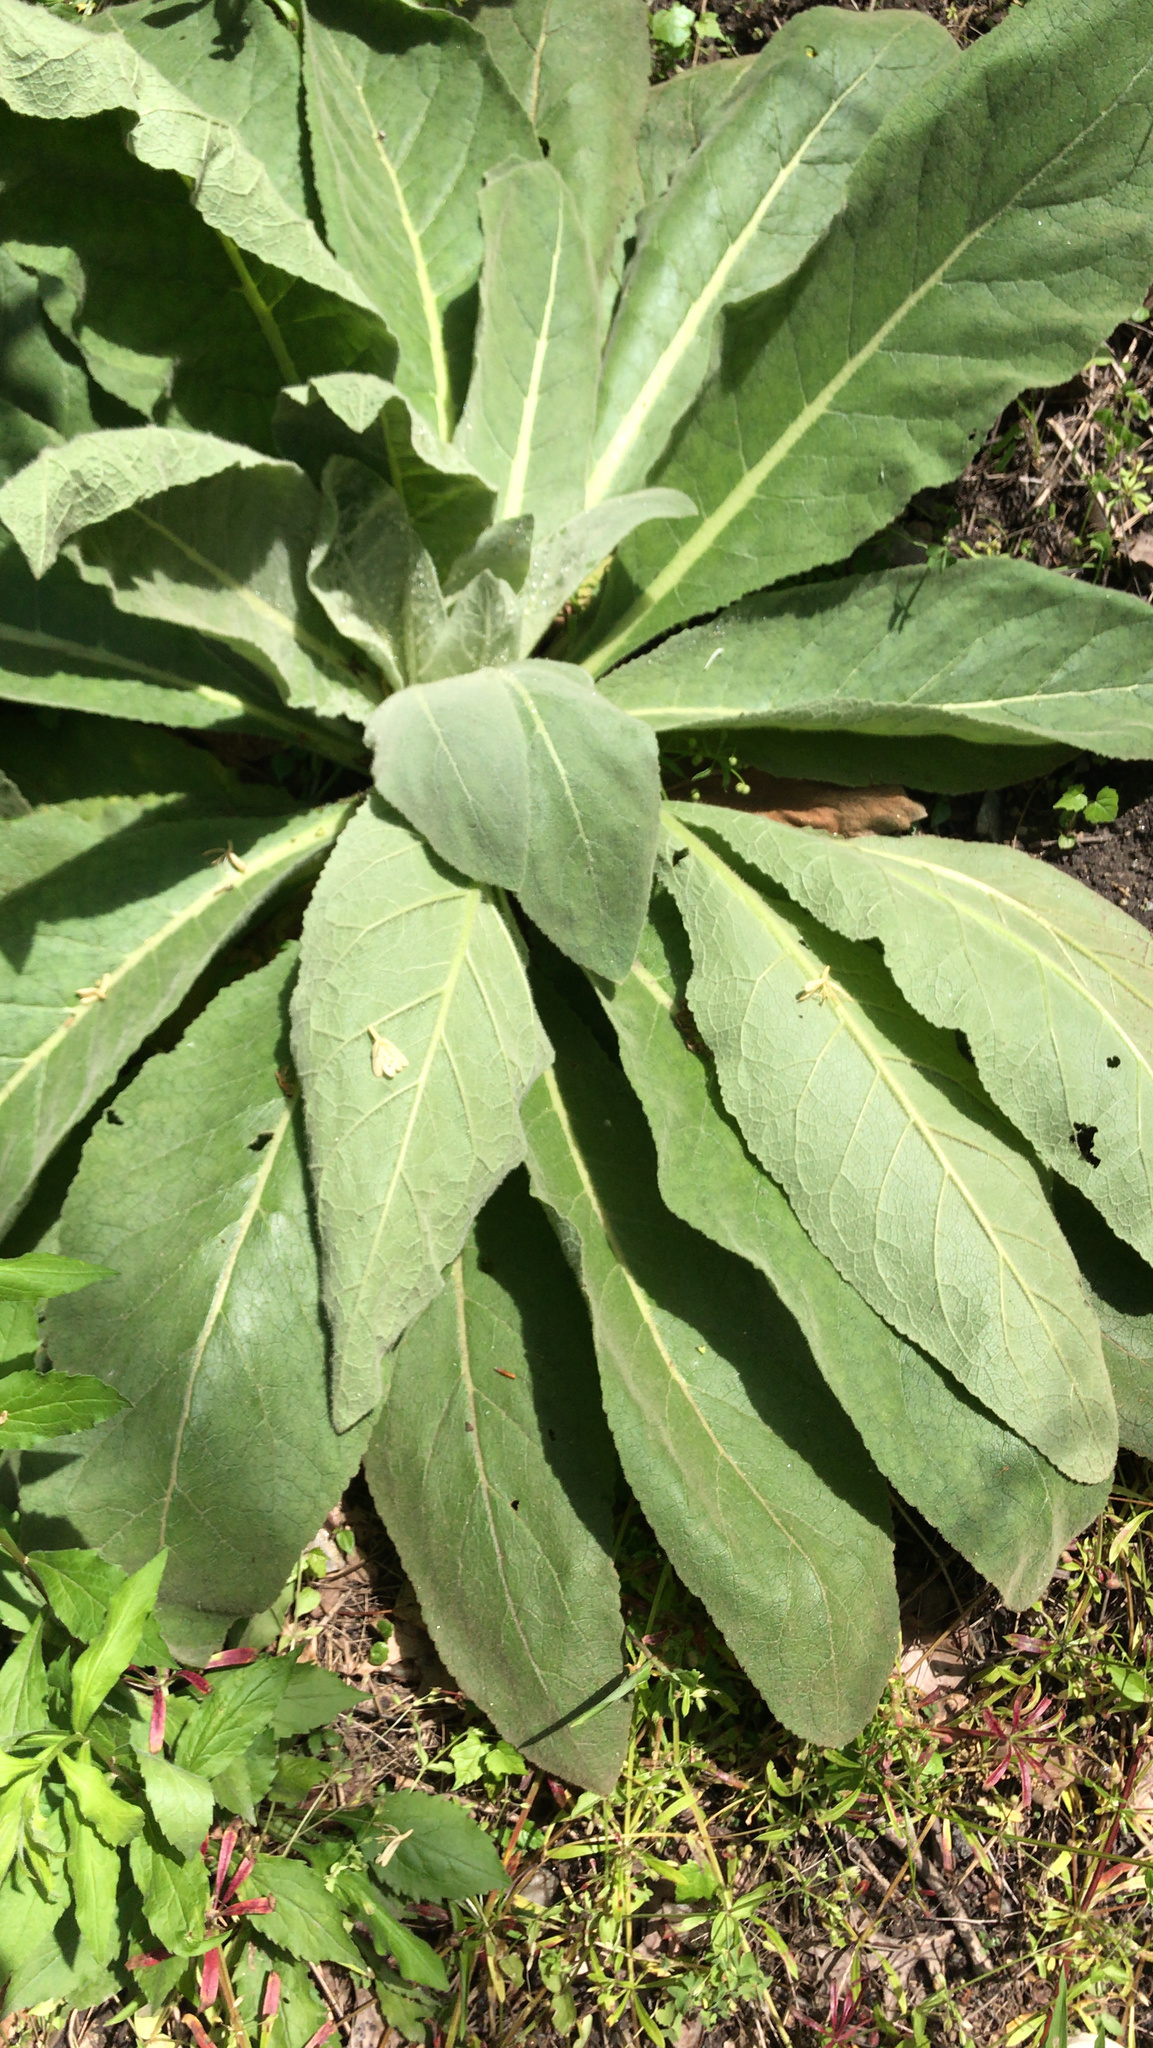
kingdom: Plantae
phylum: Tracheophyta
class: Magnoliopsida
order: Lamiales
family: Scrophulariaceae
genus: Verbascum
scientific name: Verbascum thapsus
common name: Common mullein
